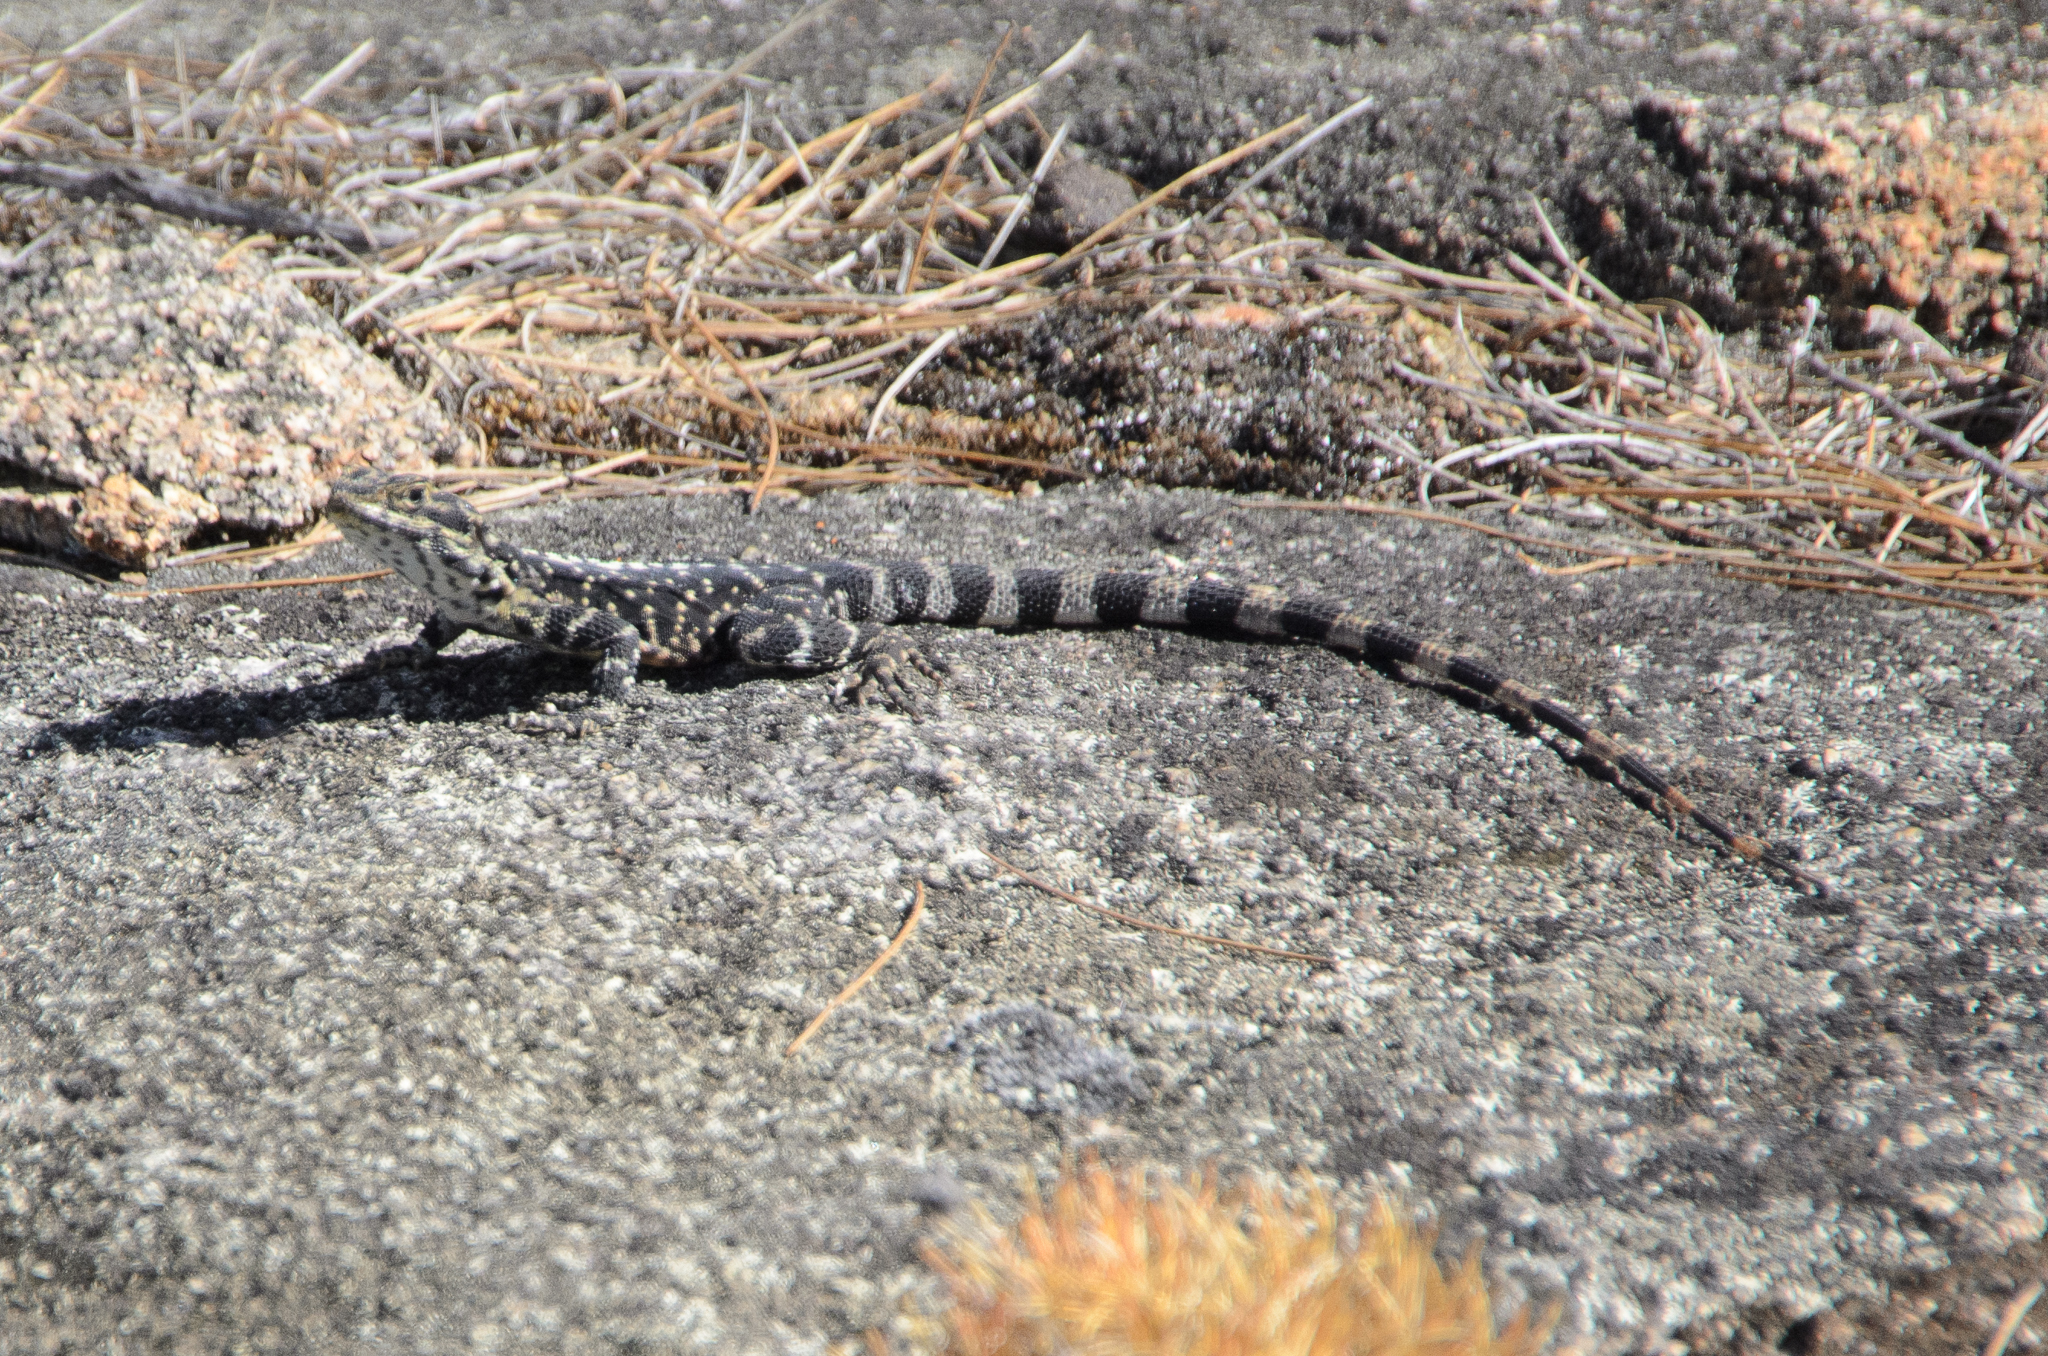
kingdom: Animalia
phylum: Chordata
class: Squamata
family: Agamidae
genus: Ctenophorus
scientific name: Ctenophorus ornatus
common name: Ornate crevice-dragon
